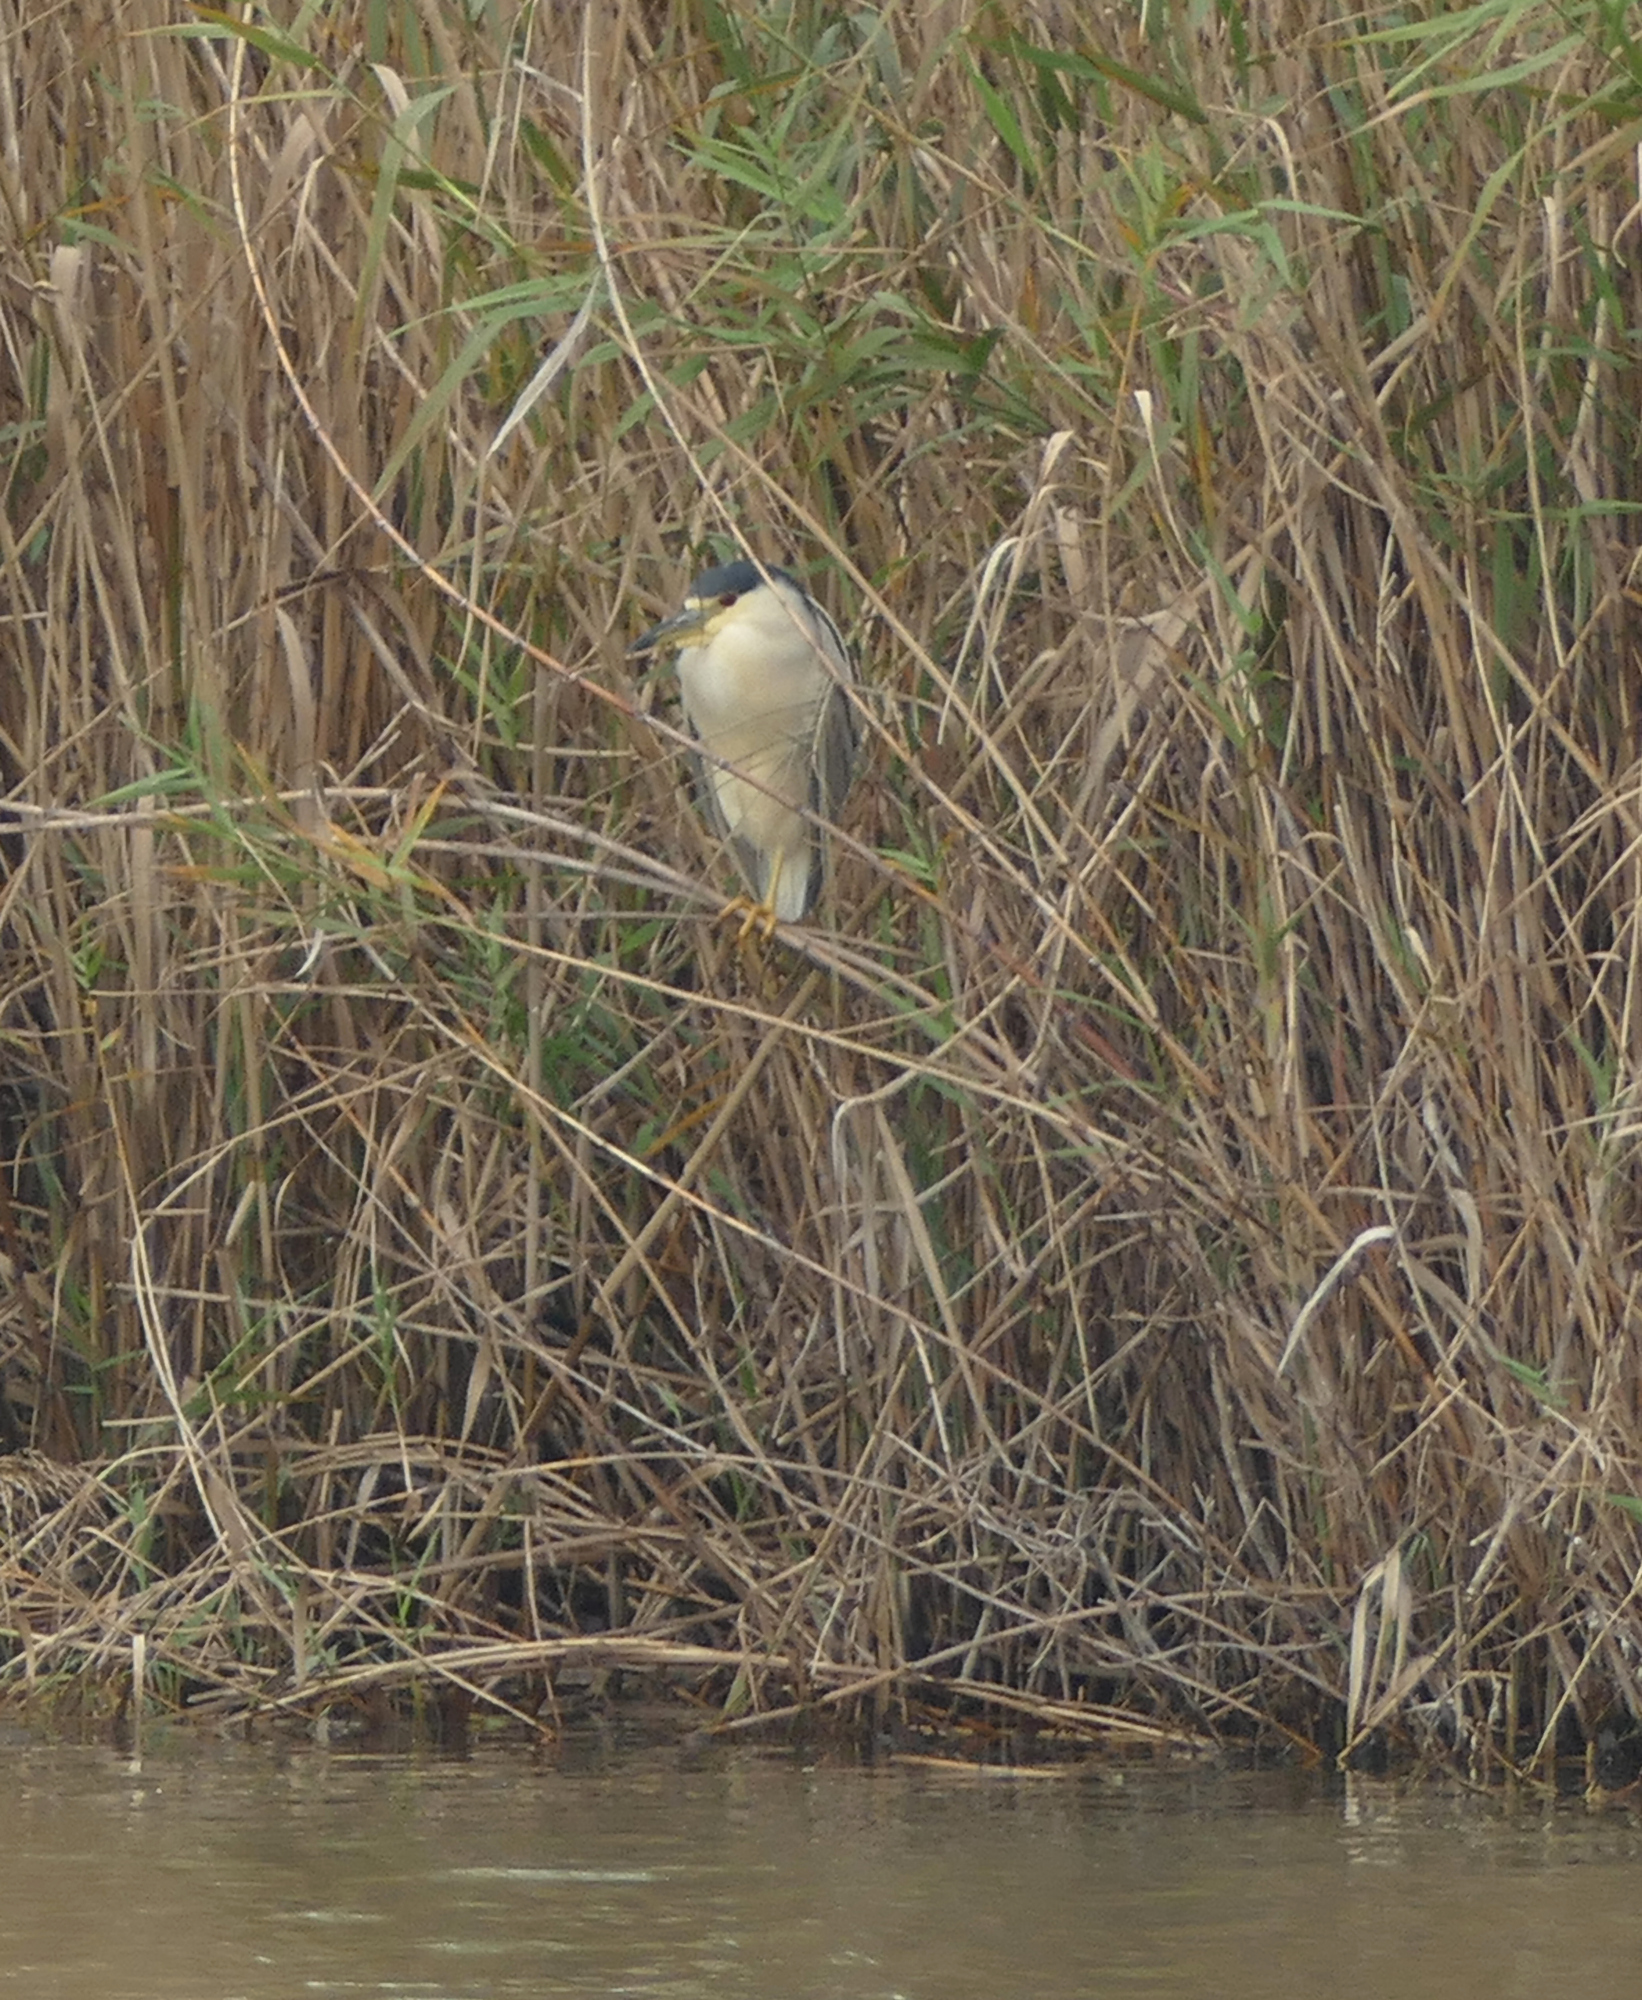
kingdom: Animalia
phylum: Chordata
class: Aves
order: Pelecaniformes
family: Ardeidae
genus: Nycticorax
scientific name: Nycticorax nycticorax
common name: Black-crowned night heron
